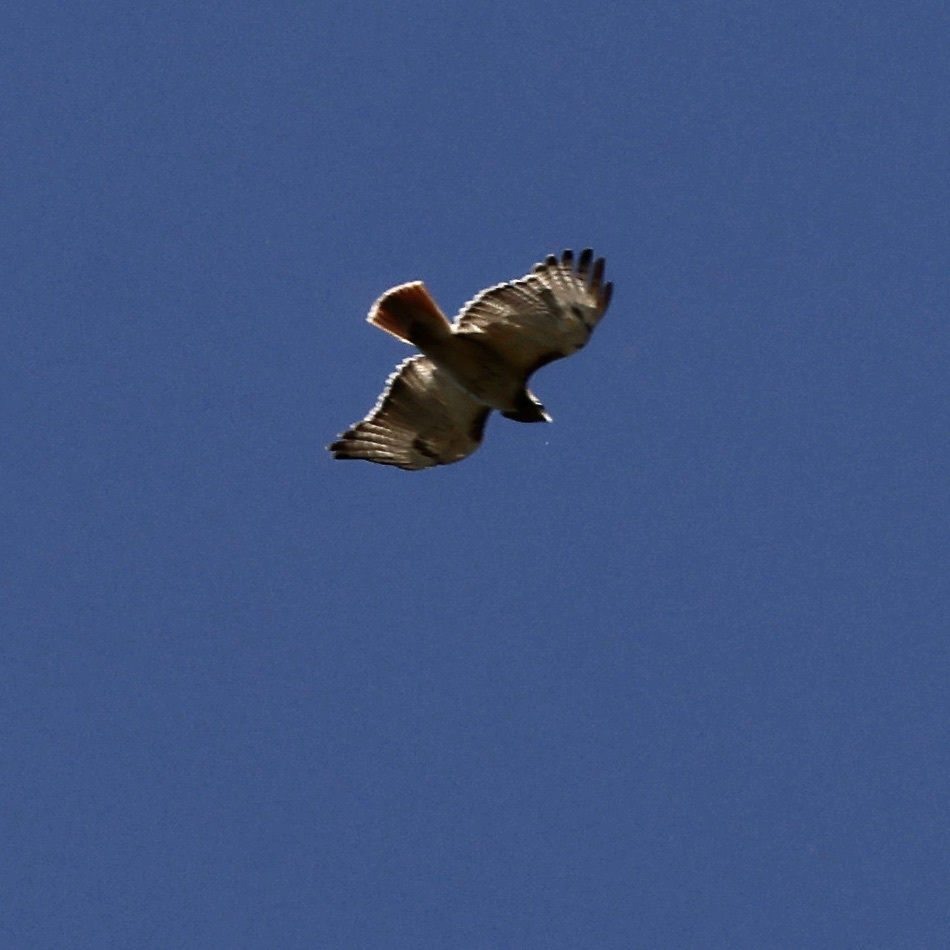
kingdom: Animalia
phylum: Chordata
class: Aves
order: Accipitriformes
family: Accipitridae
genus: Buteo
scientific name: Buteo jamaicensis
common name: Red-tailed hawk
